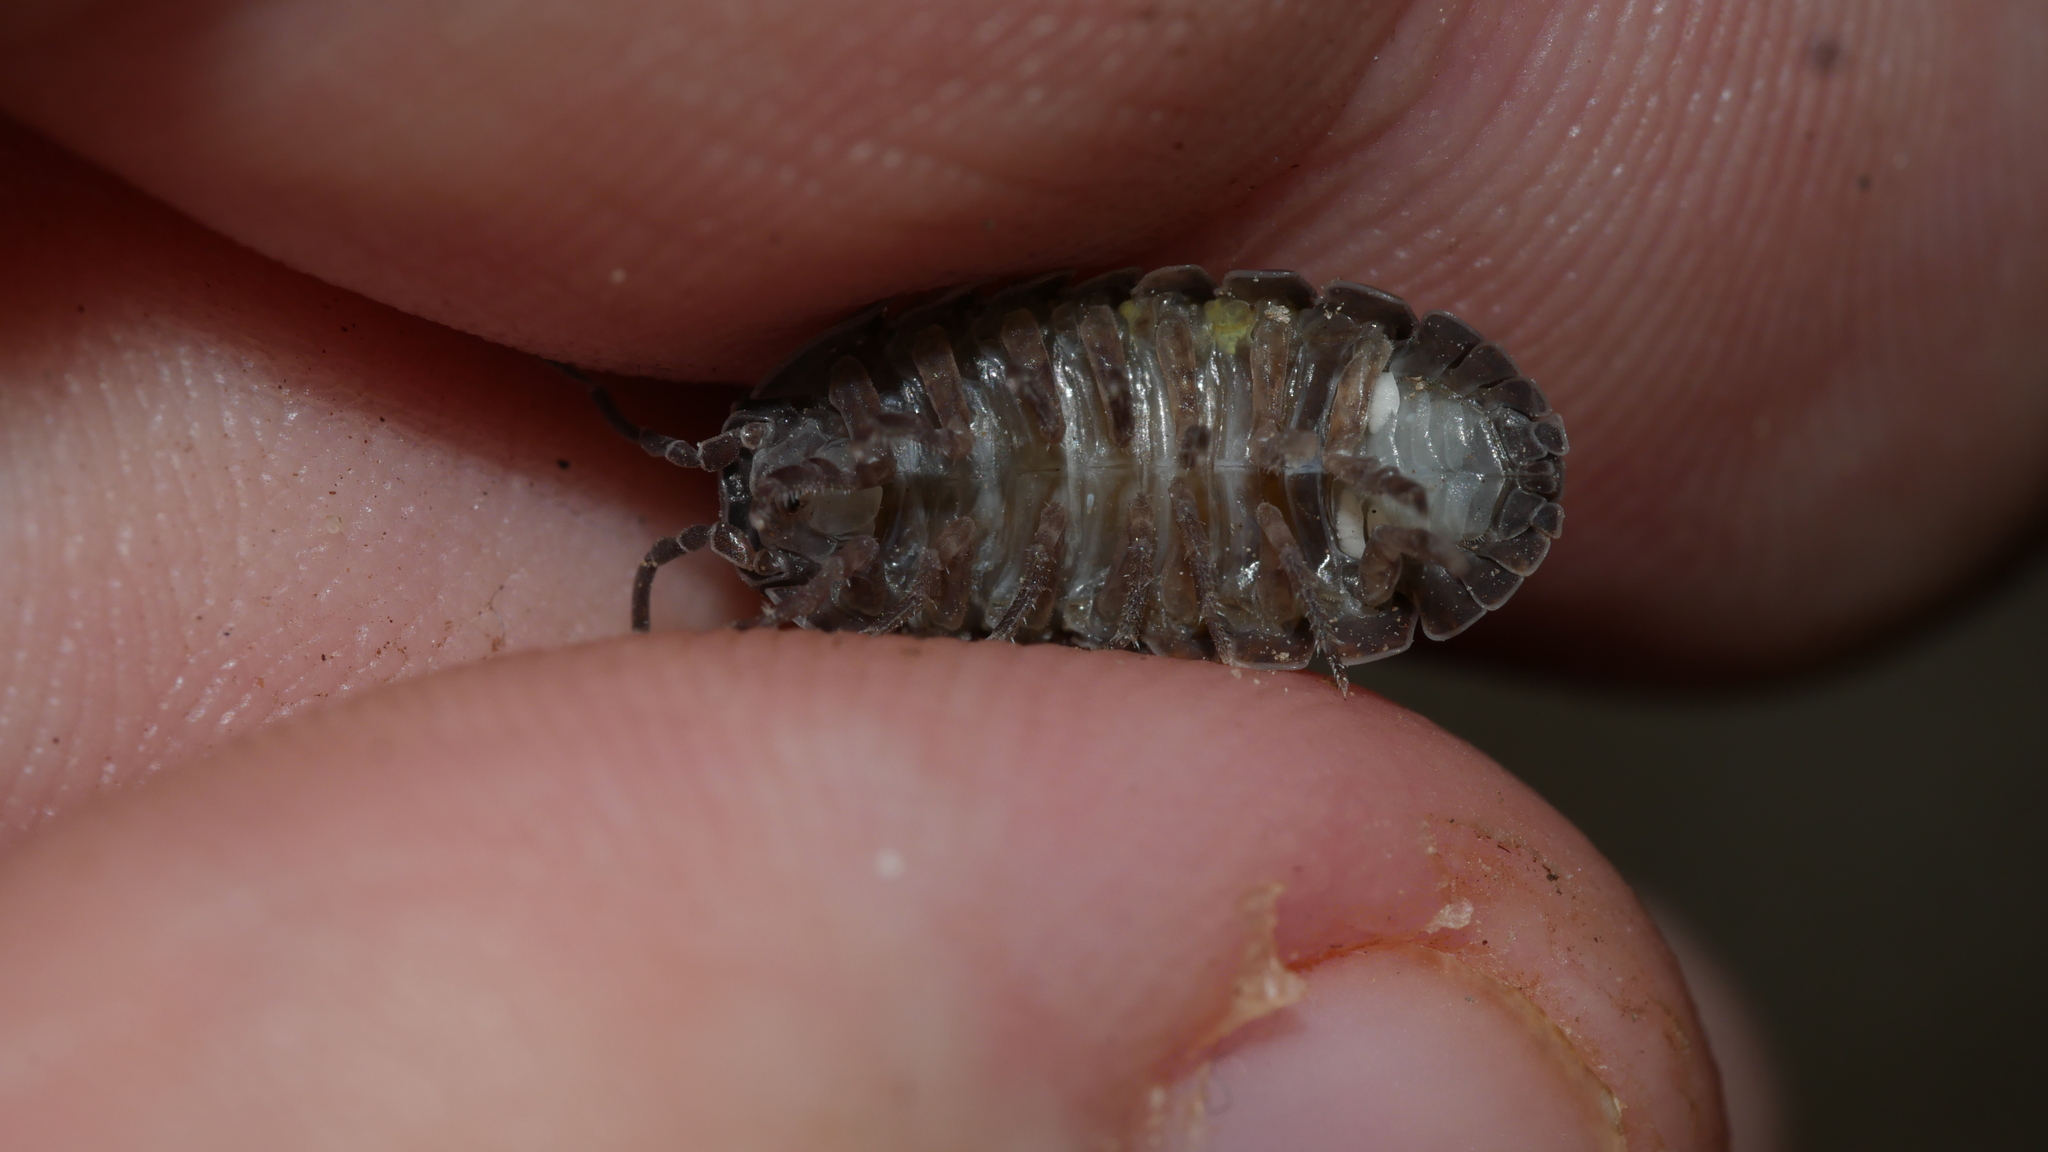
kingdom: Animalia
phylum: Arthropoda
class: Malacostraca
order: Isopoda
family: Armadillidiidae
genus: Armadillidium
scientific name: Armadillidium vulgare
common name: Common pill woodlouse
